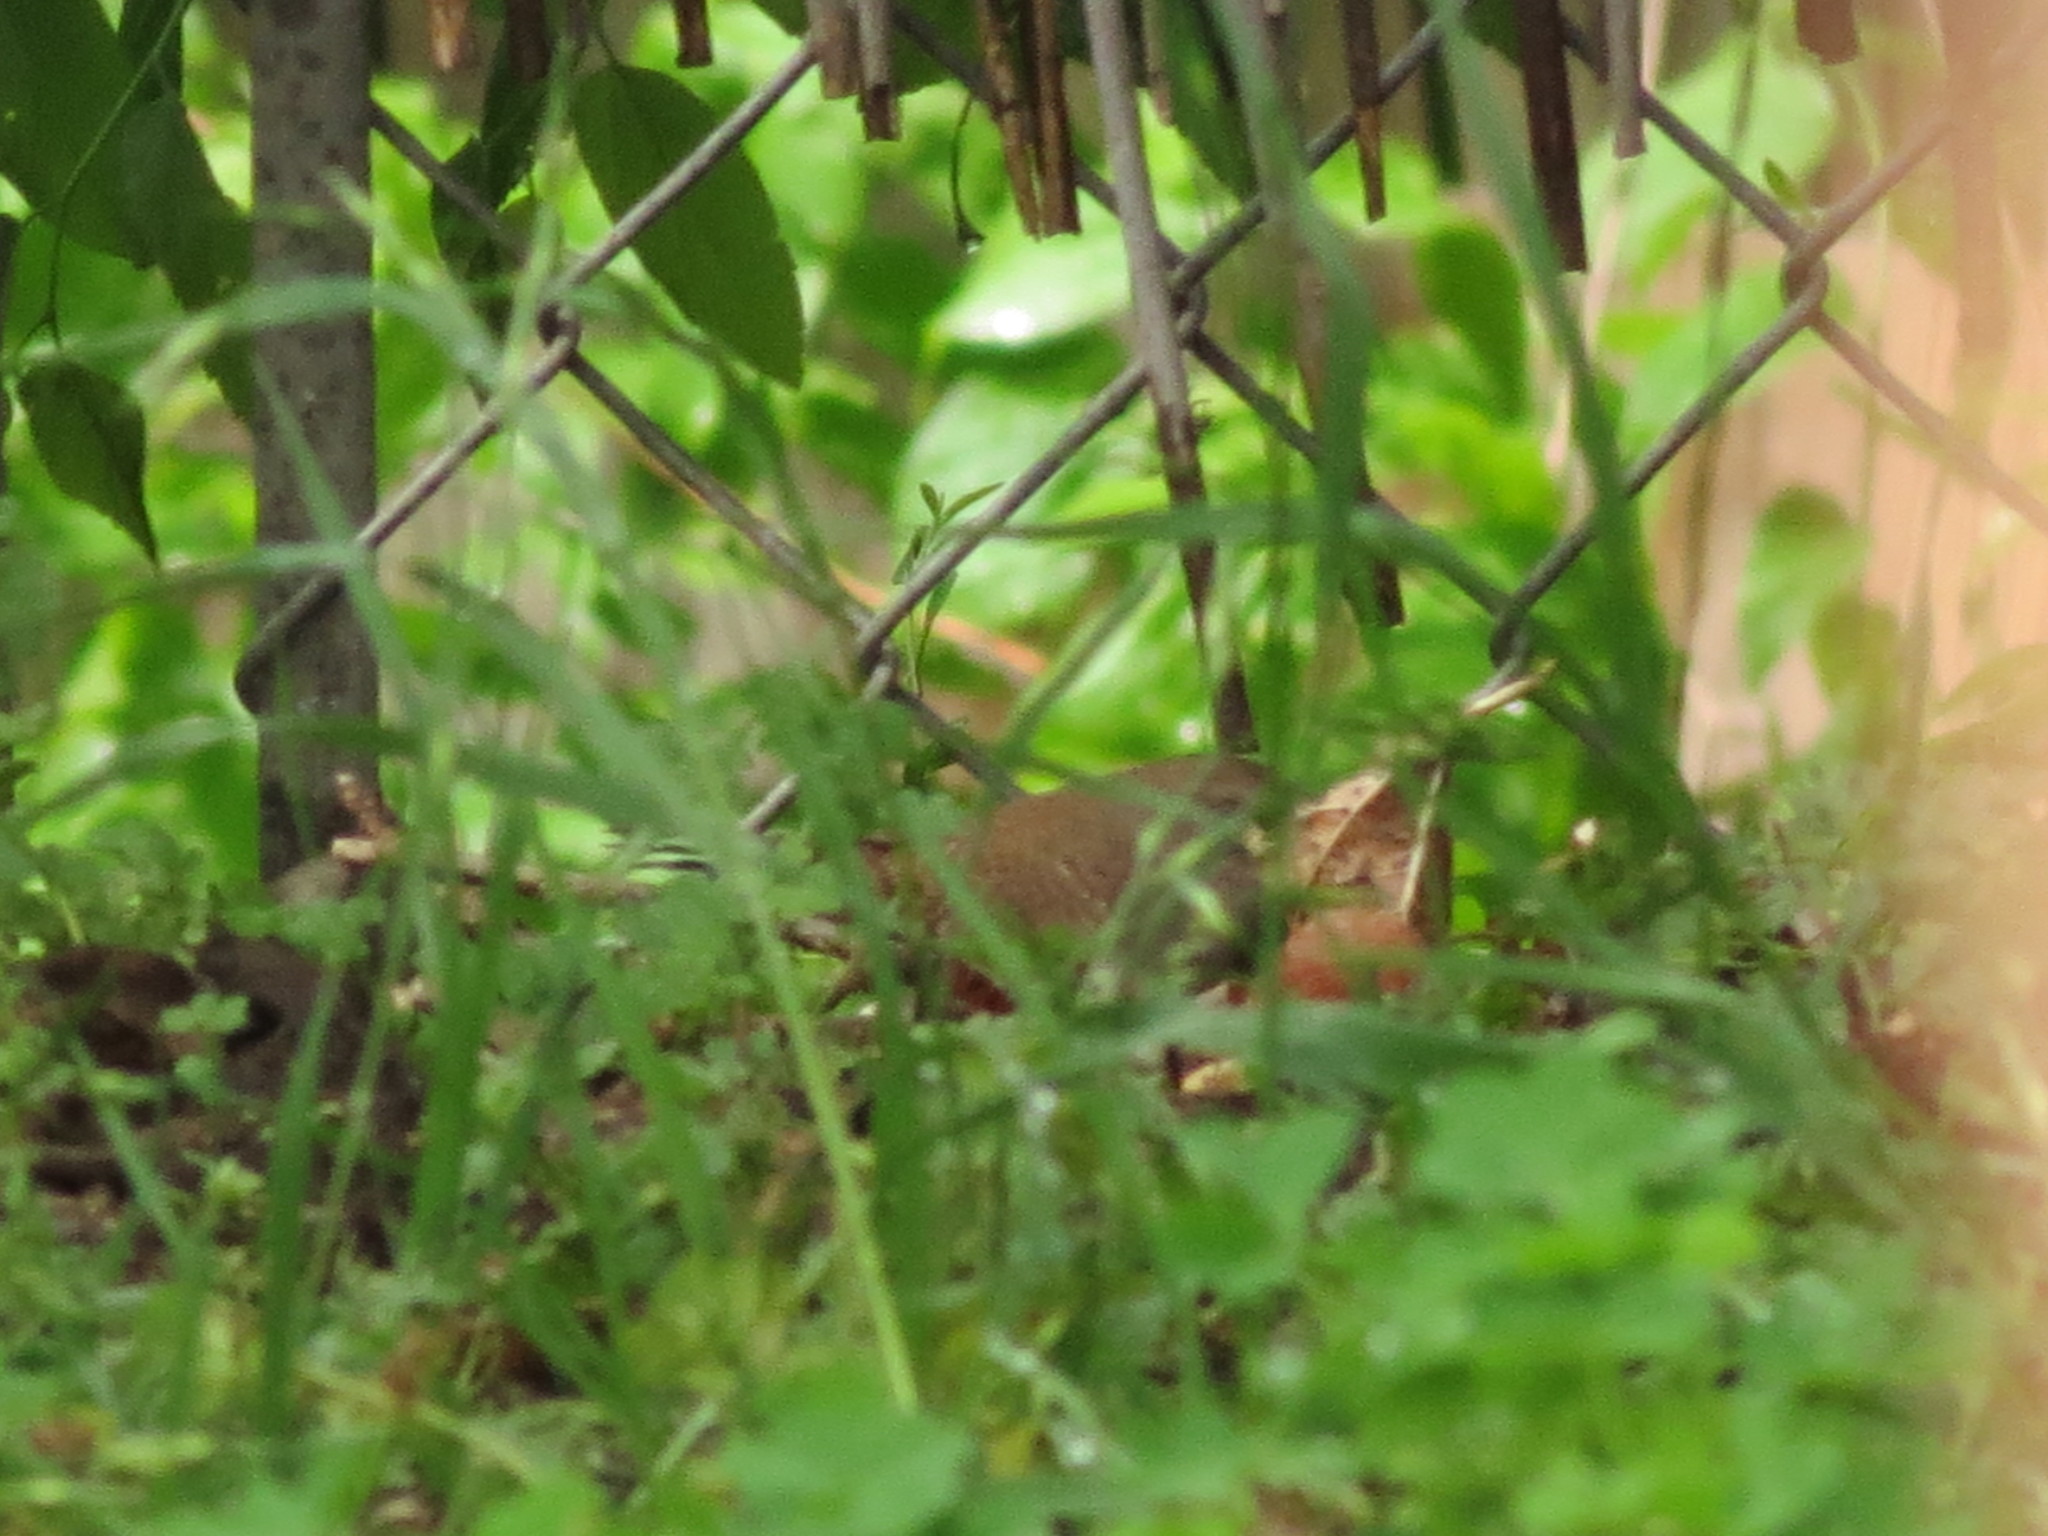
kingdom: Animalia
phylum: Chordata
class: Aves
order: Passeriformes
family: Troglodytidae
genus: Troglodytes
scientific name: Troglodytes aedon
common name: House wren
